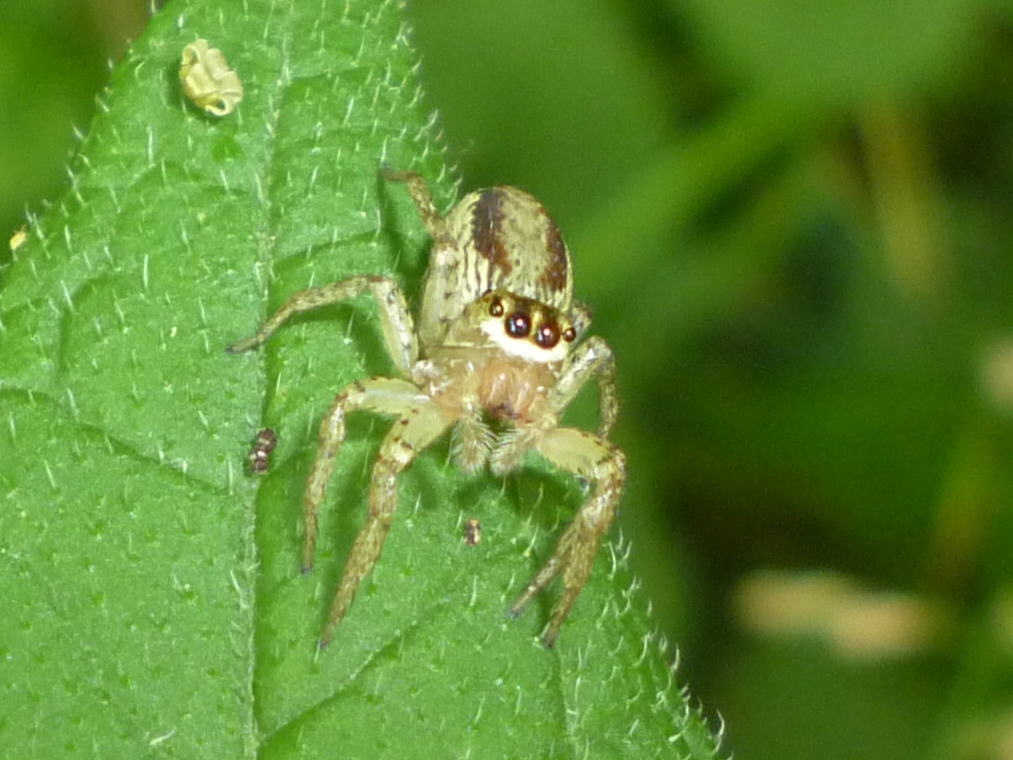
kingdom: Animalia
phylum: Arthropoda
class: Arachnida
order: Araneae
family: Salticidae
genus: Maevia
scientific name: Maevia inclemens
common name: Dimorphic jumper
